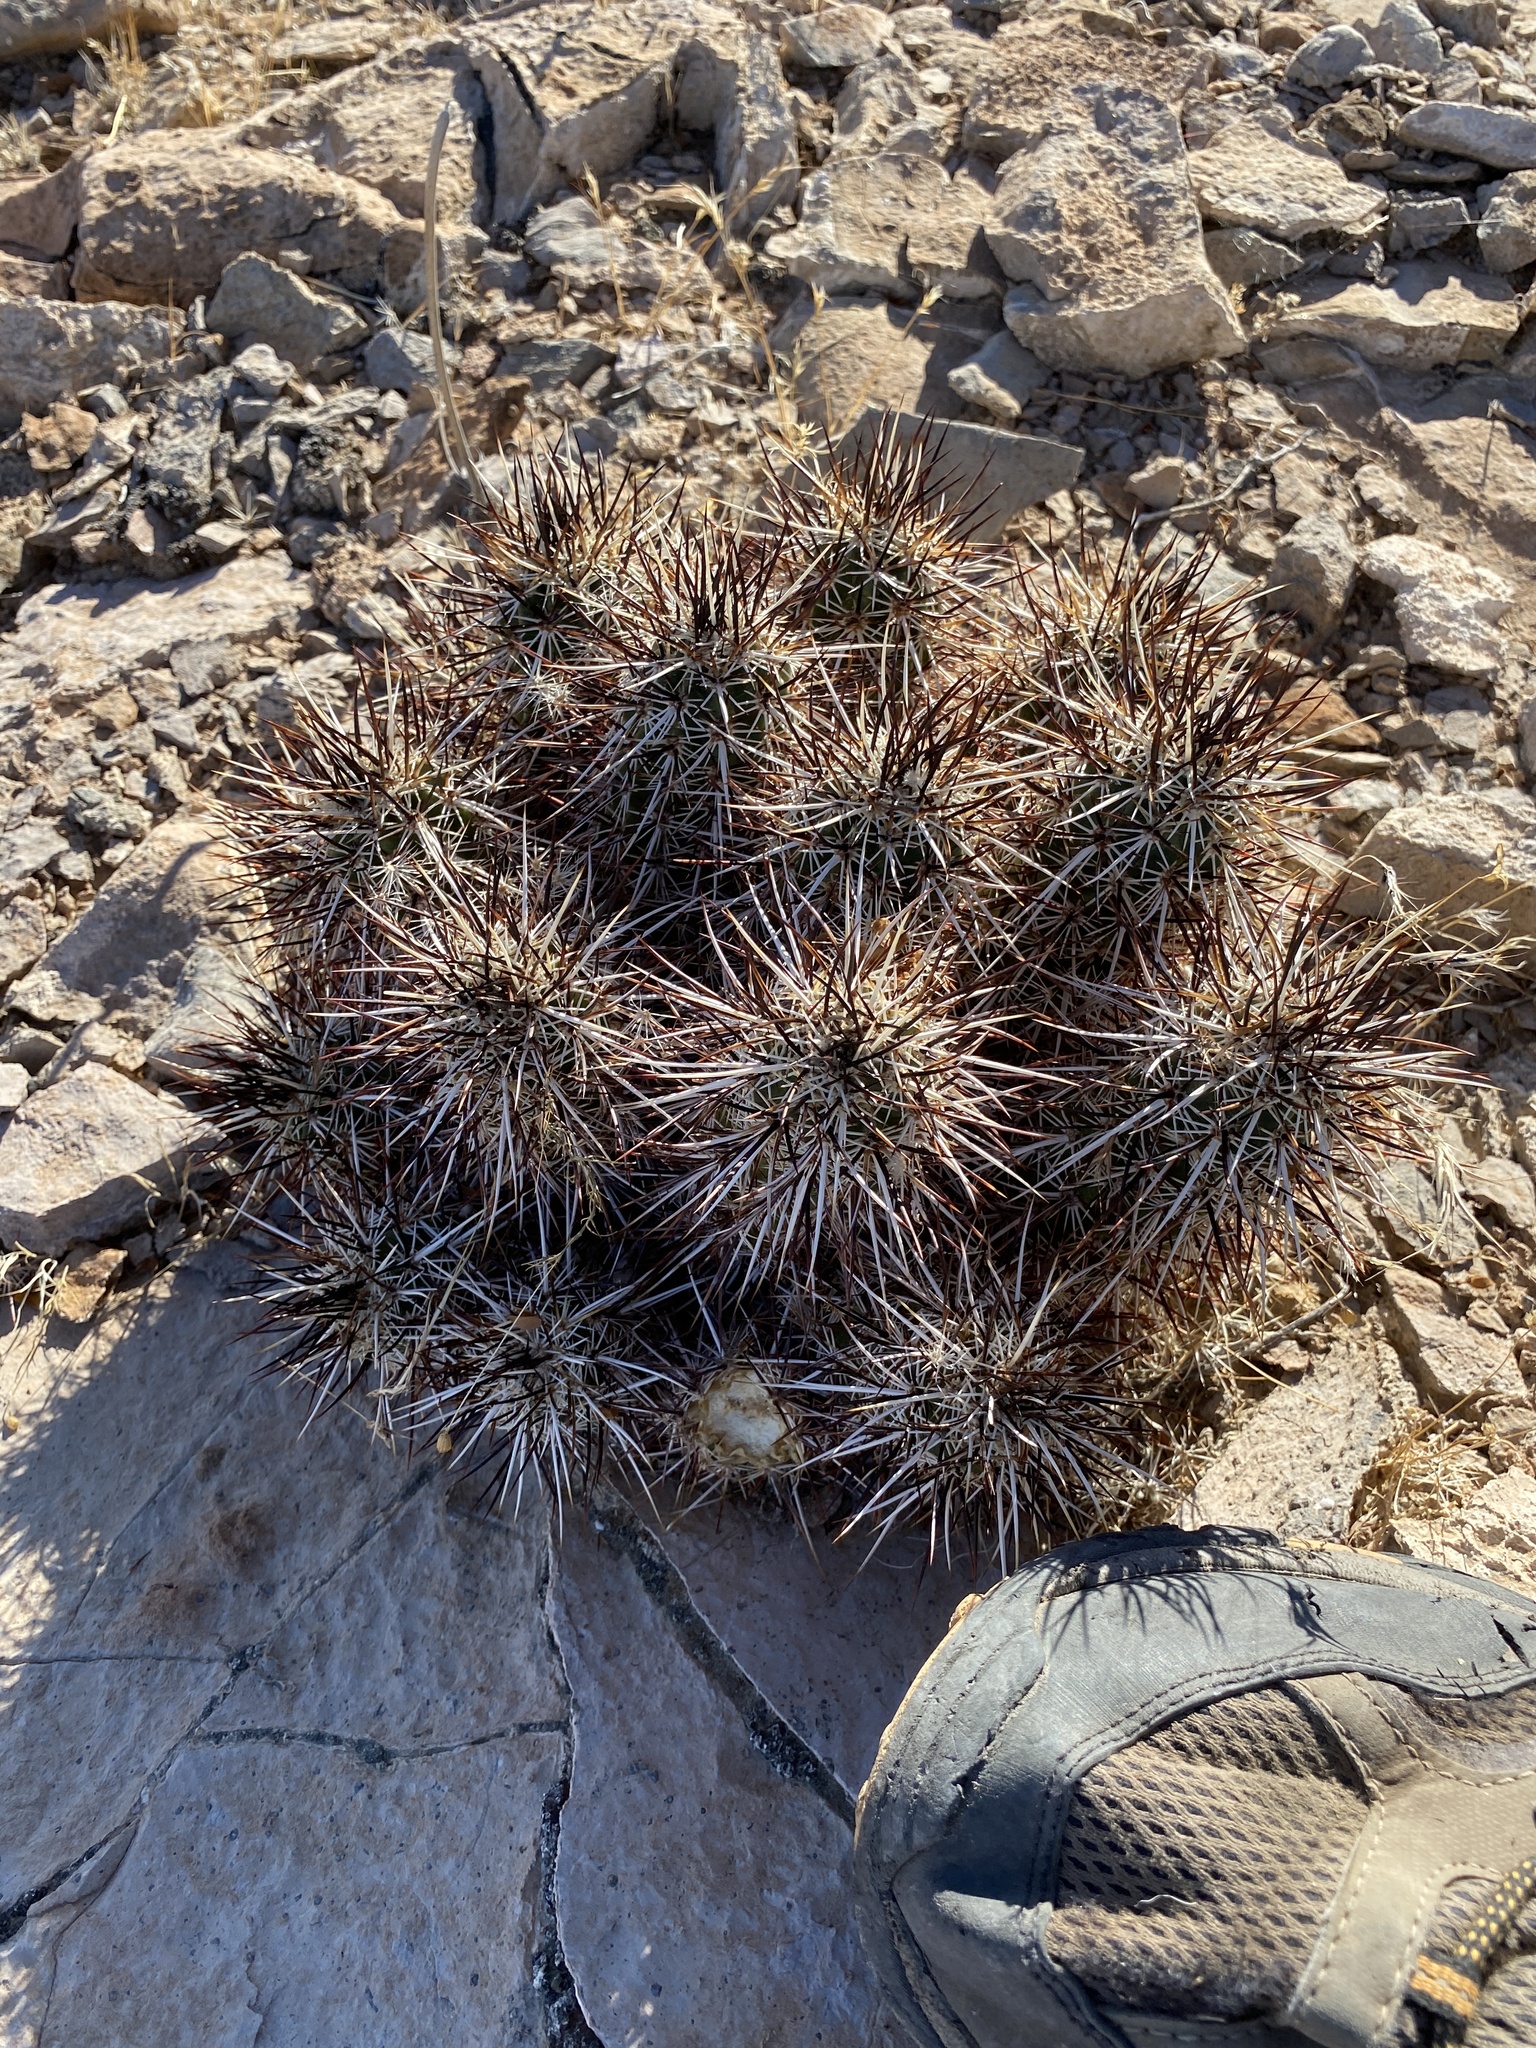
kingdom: Plantae
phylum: Tracheophyta
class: Magnoliopsida
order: Caryophyllales
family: Cactaceae
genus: Echinocereus
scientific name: Echinocereus engelmannii
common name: Engelmann's hedgehog cactus
